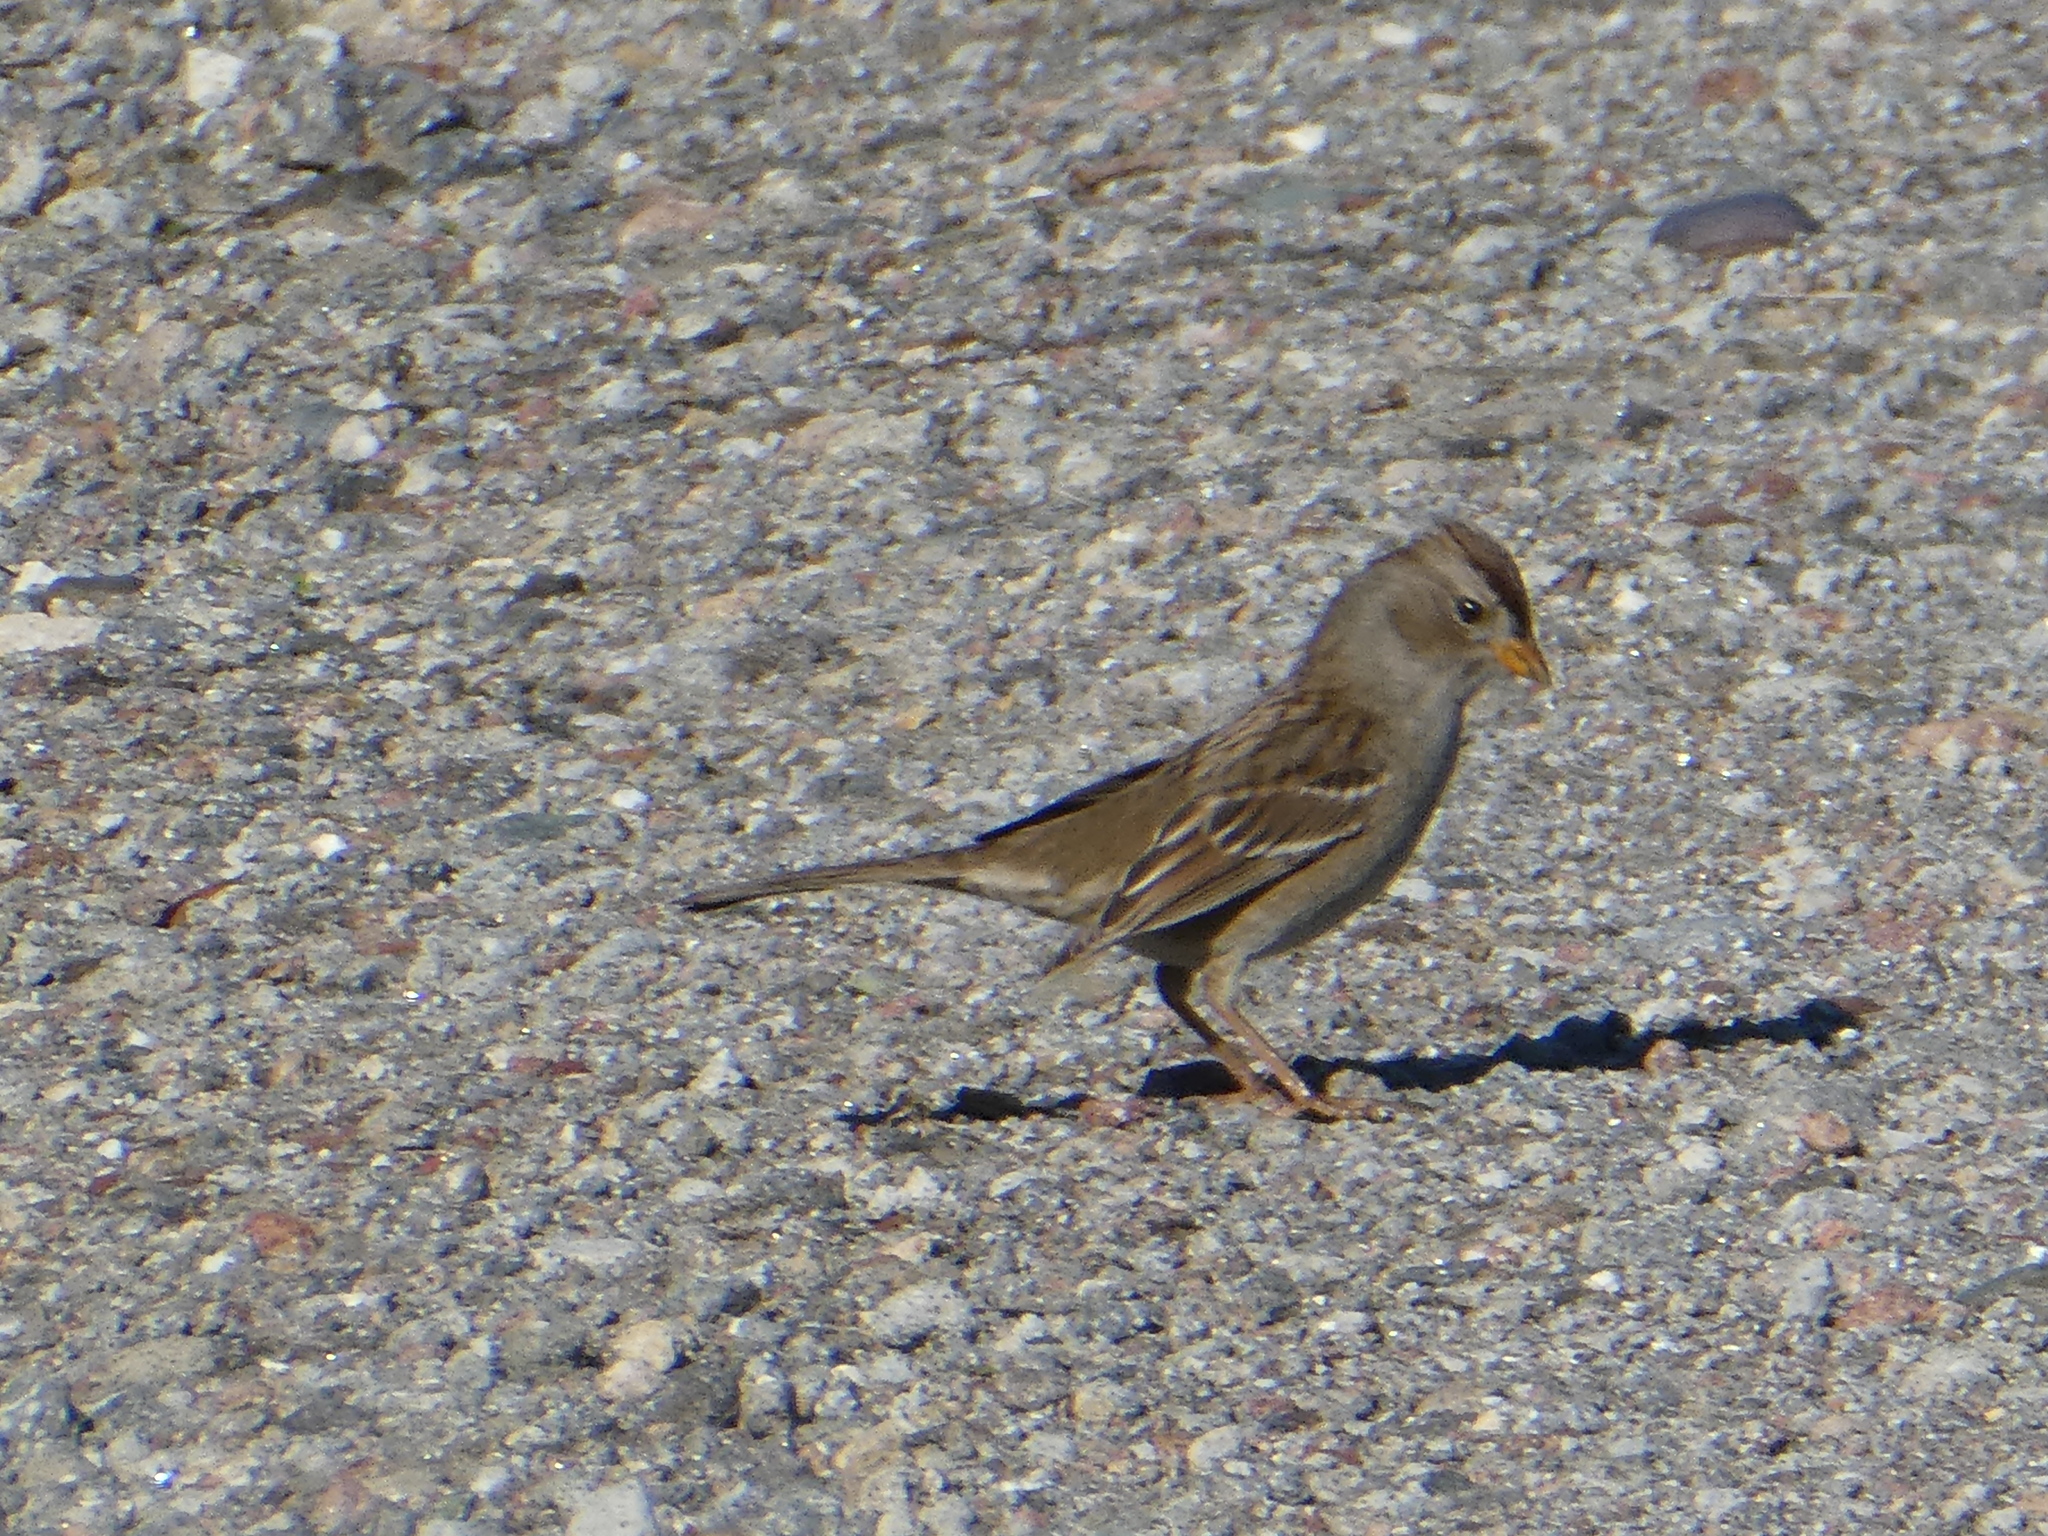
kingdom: Animalia
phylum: Chordata
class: Aves
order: Passeriformes
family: Passerellidae
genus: Zonotrichia
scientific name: Zonotrichia leucophrys
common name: White-crowned sparrow
